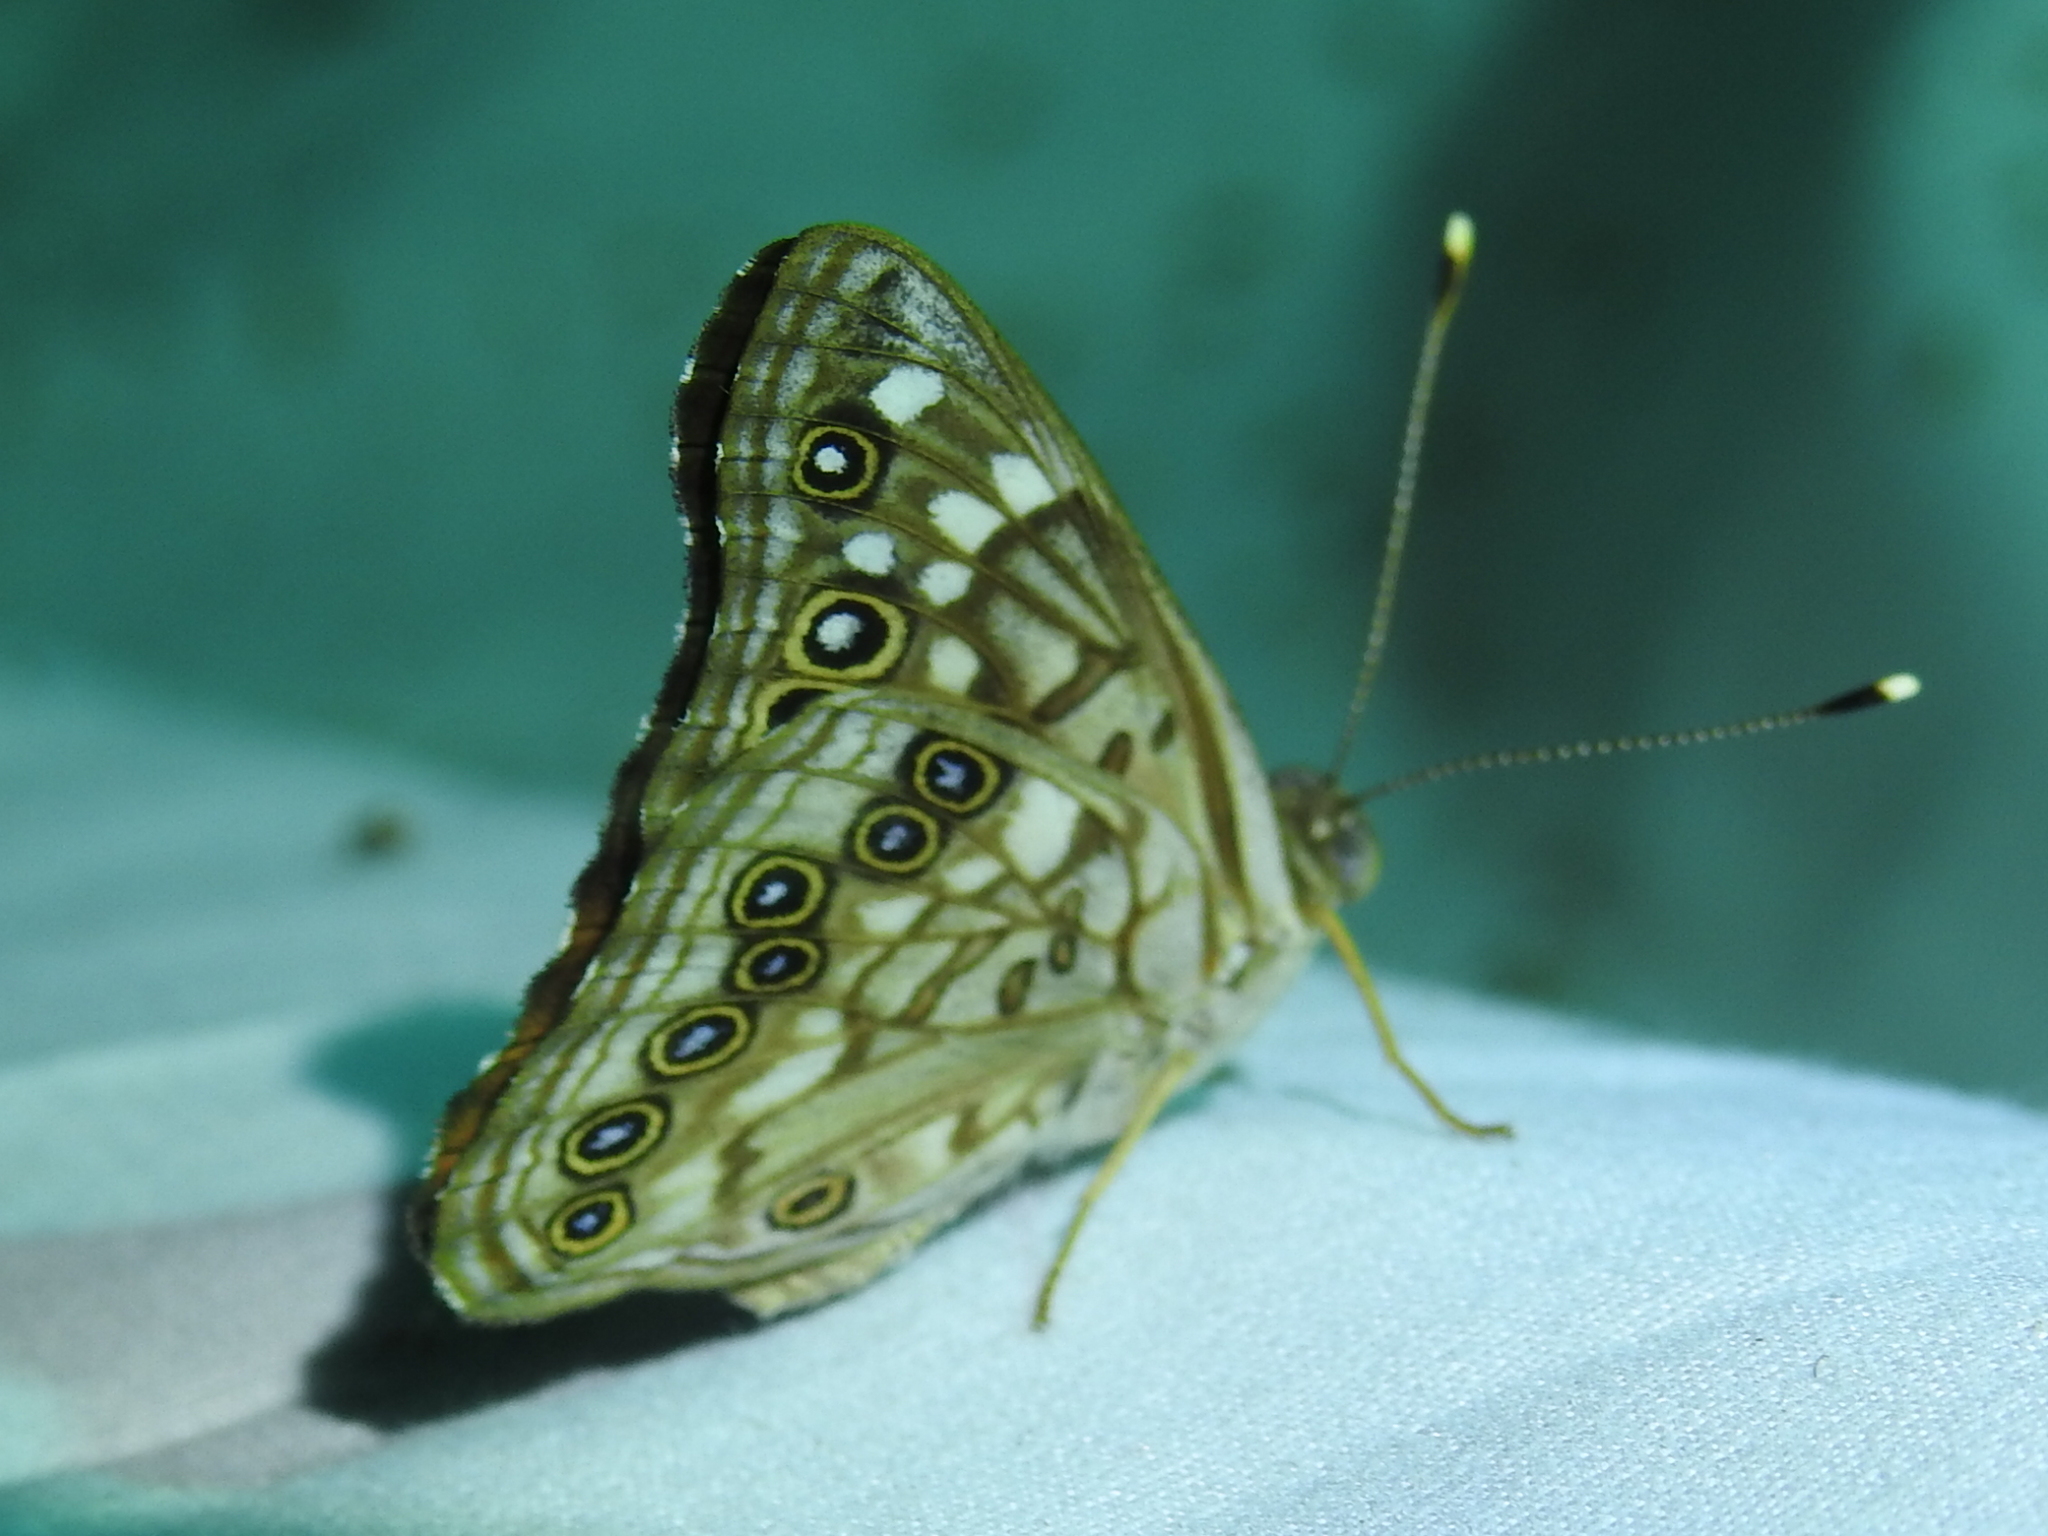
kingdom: Animalia
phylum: Arthropoda
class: Insecta
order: Lepidoptera
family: Nymphalidae
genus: Asterocampa
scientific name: Asterocampa celtis
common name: Hackberry emperor
